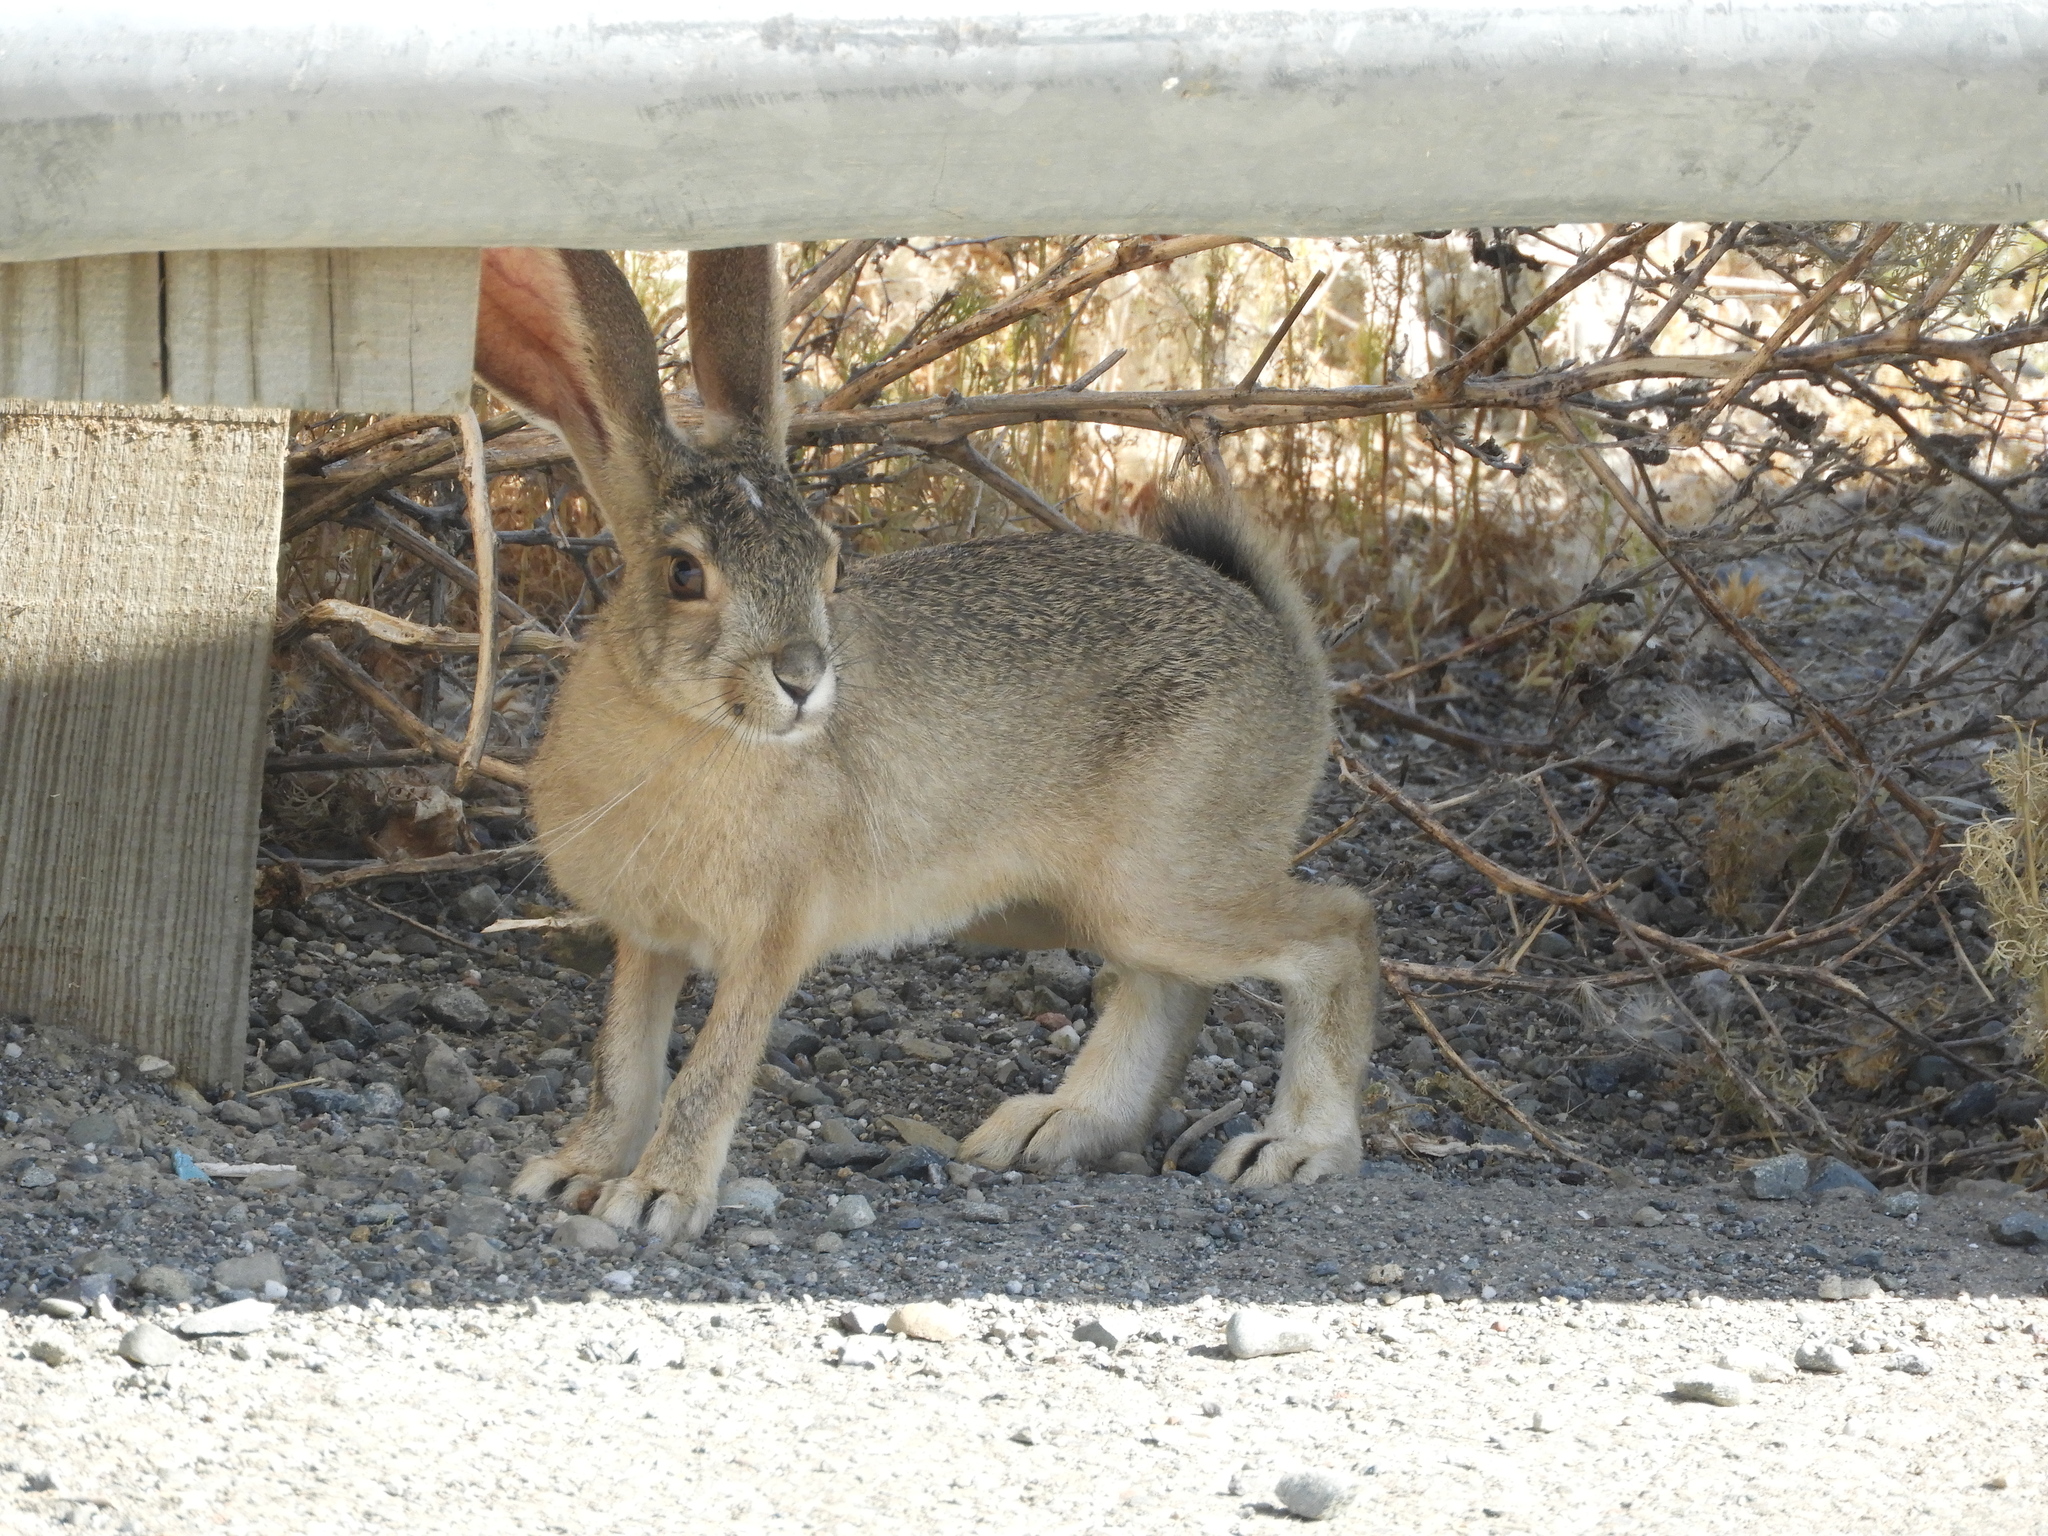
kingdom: Animalia
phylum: Chordata
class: Mammalia
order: Lagomorpha
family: Leporidae
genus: Lepus
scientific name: Lepus californicus
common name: Black-tailed jackrabbit
